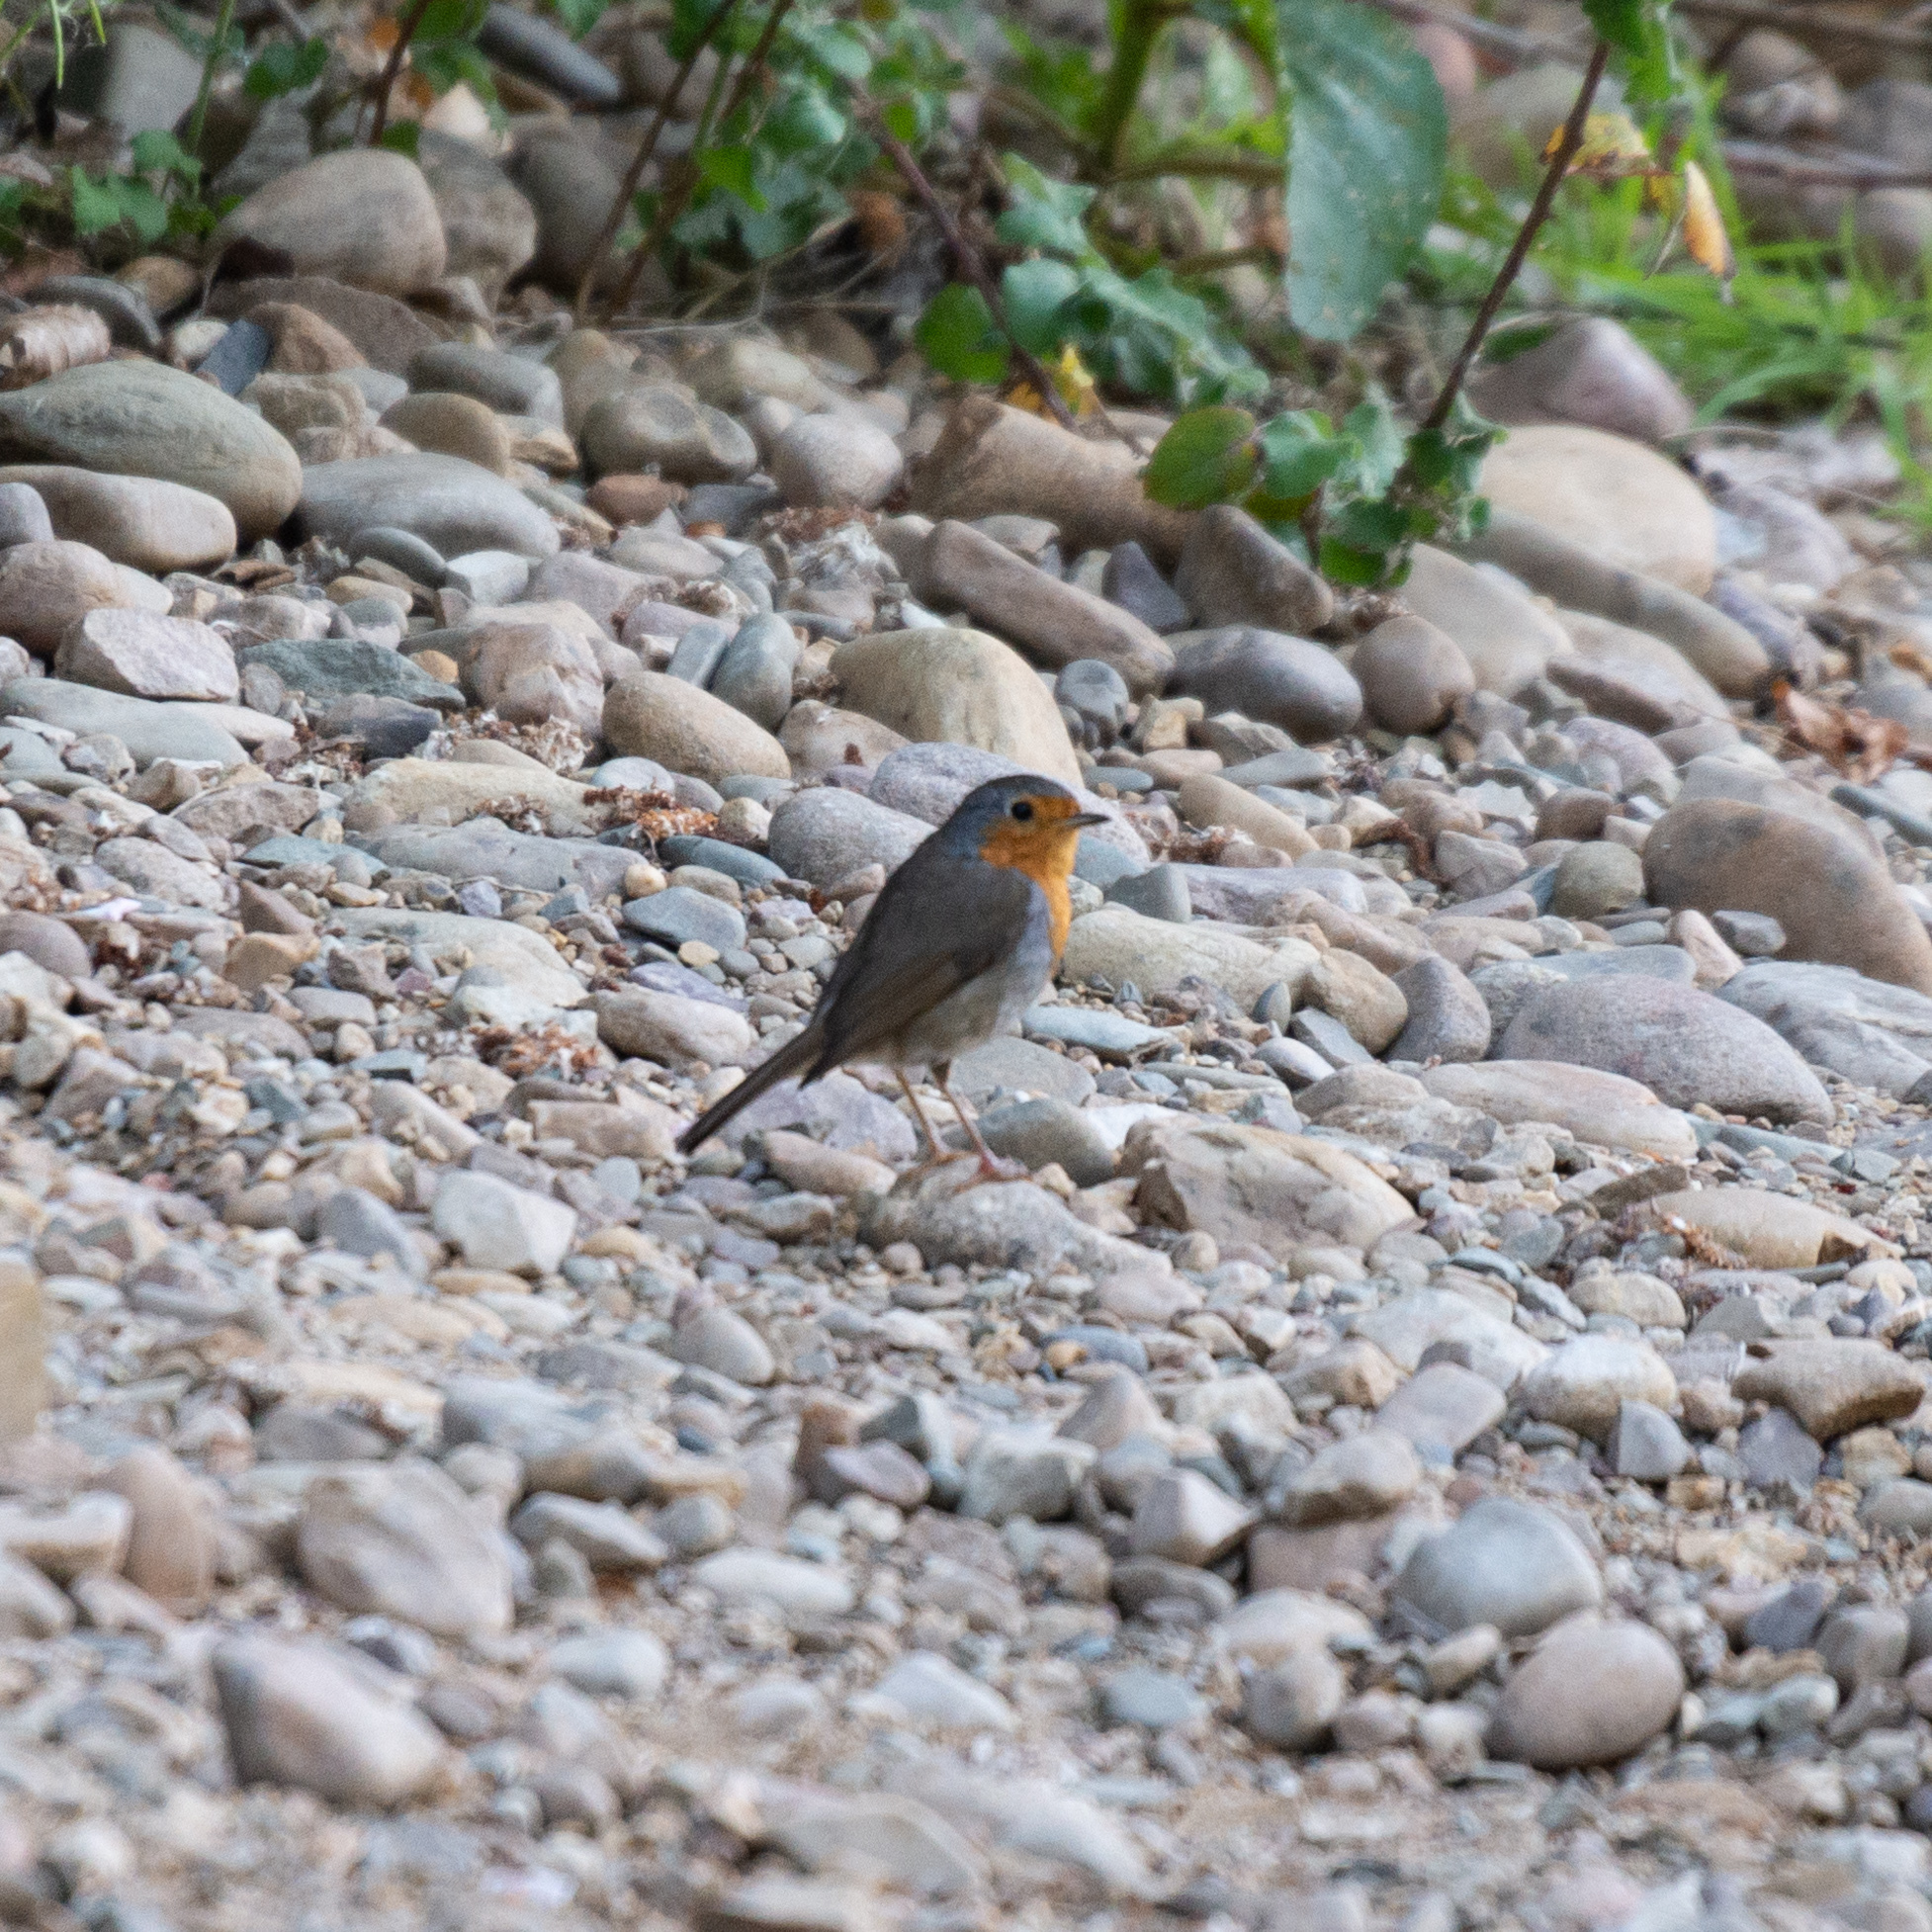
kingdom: Animalia
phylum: Chordata
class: Aves
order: Passeriformes
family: Muscicapidae
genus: Erithacus
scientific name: Erithacus rubecula
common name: European robin
